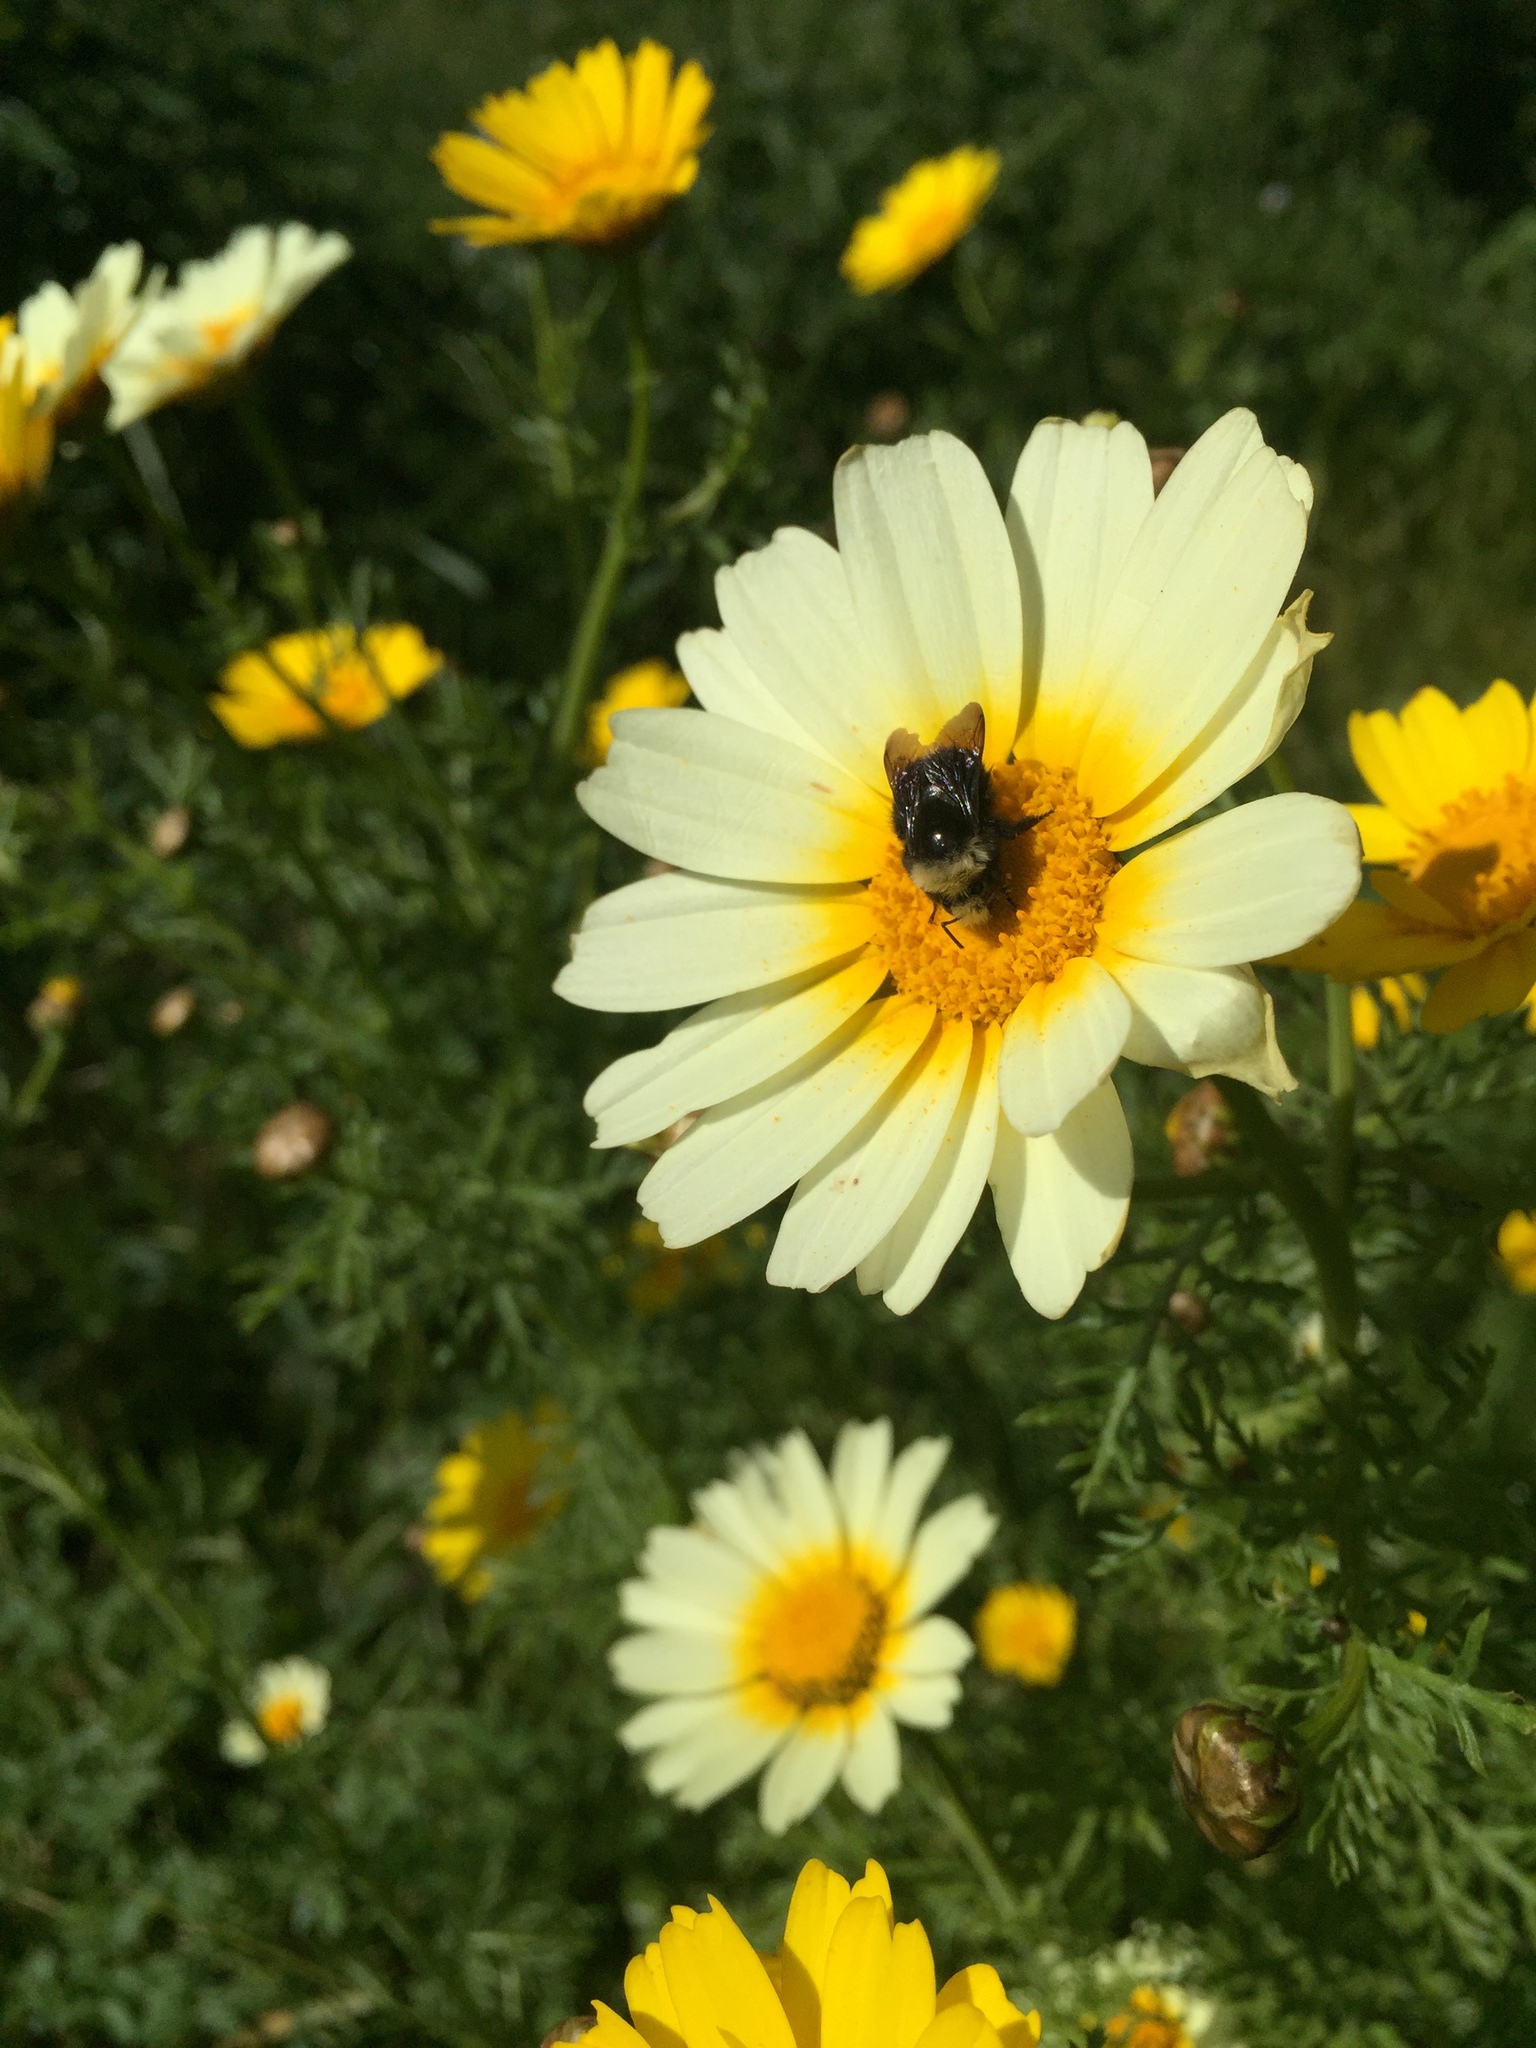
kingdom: Animalia
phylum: Arthropoda
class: Insecta
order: Hymenoptera
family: Apidae
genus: Pyrobombus
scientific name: Pyrobombus
